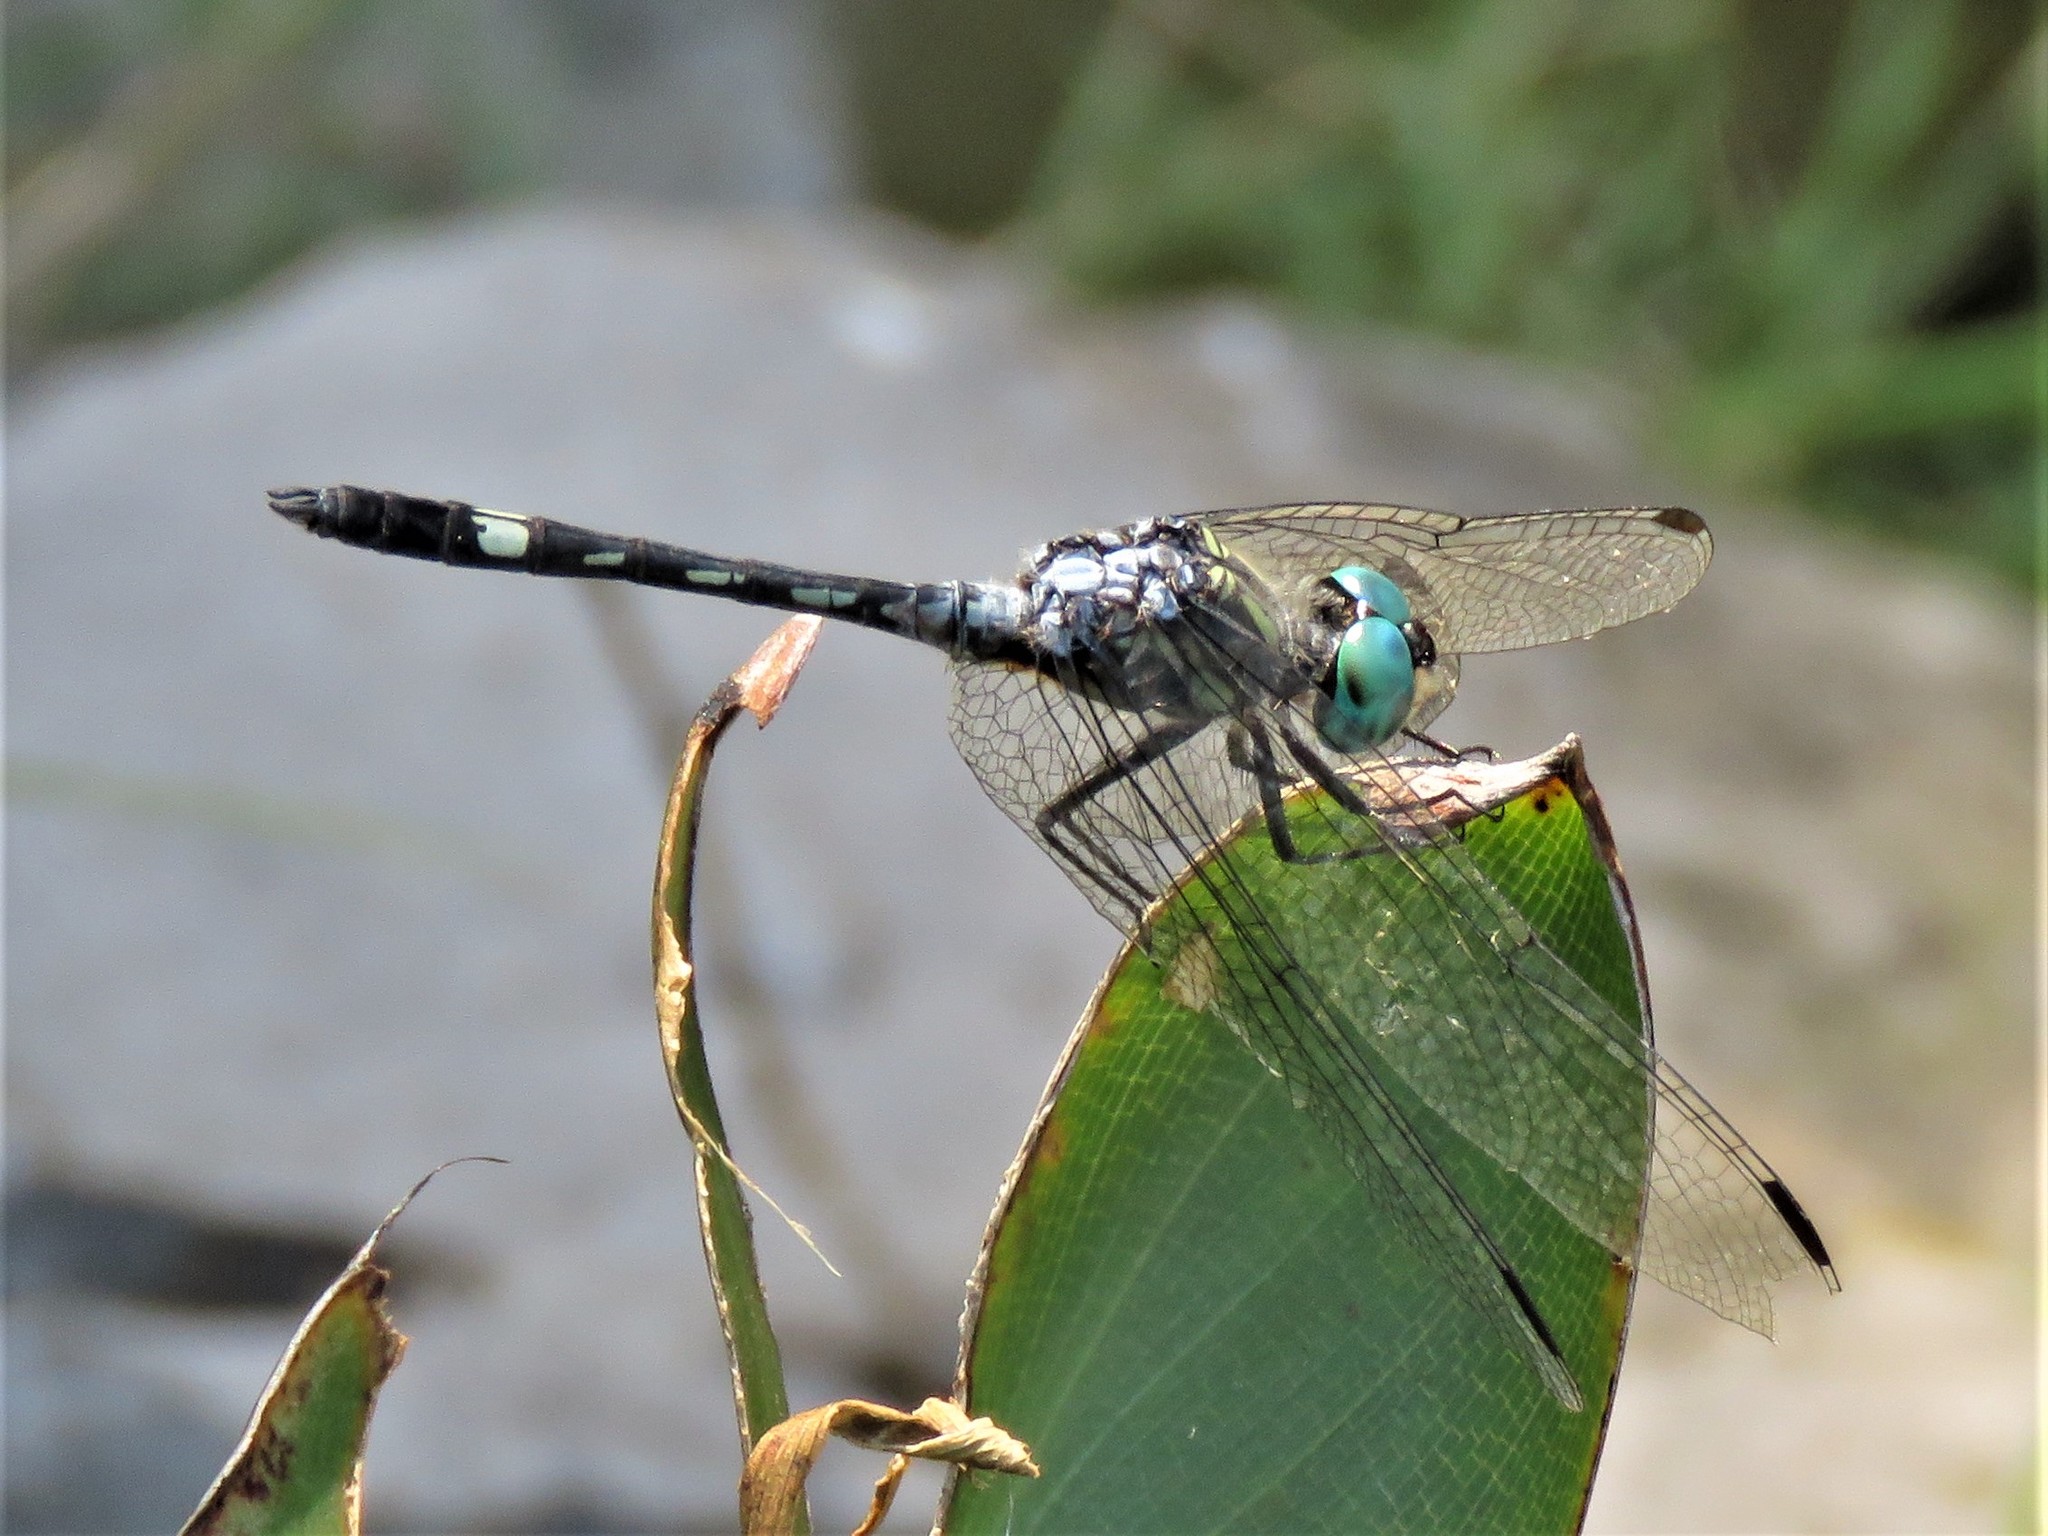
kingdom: Animalia
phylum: Arthropoda
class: Insecta
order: Odonata
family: Libellulidae
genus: Micrathyria
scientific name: Micrathyria hagenii
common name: Thornbush dasher
